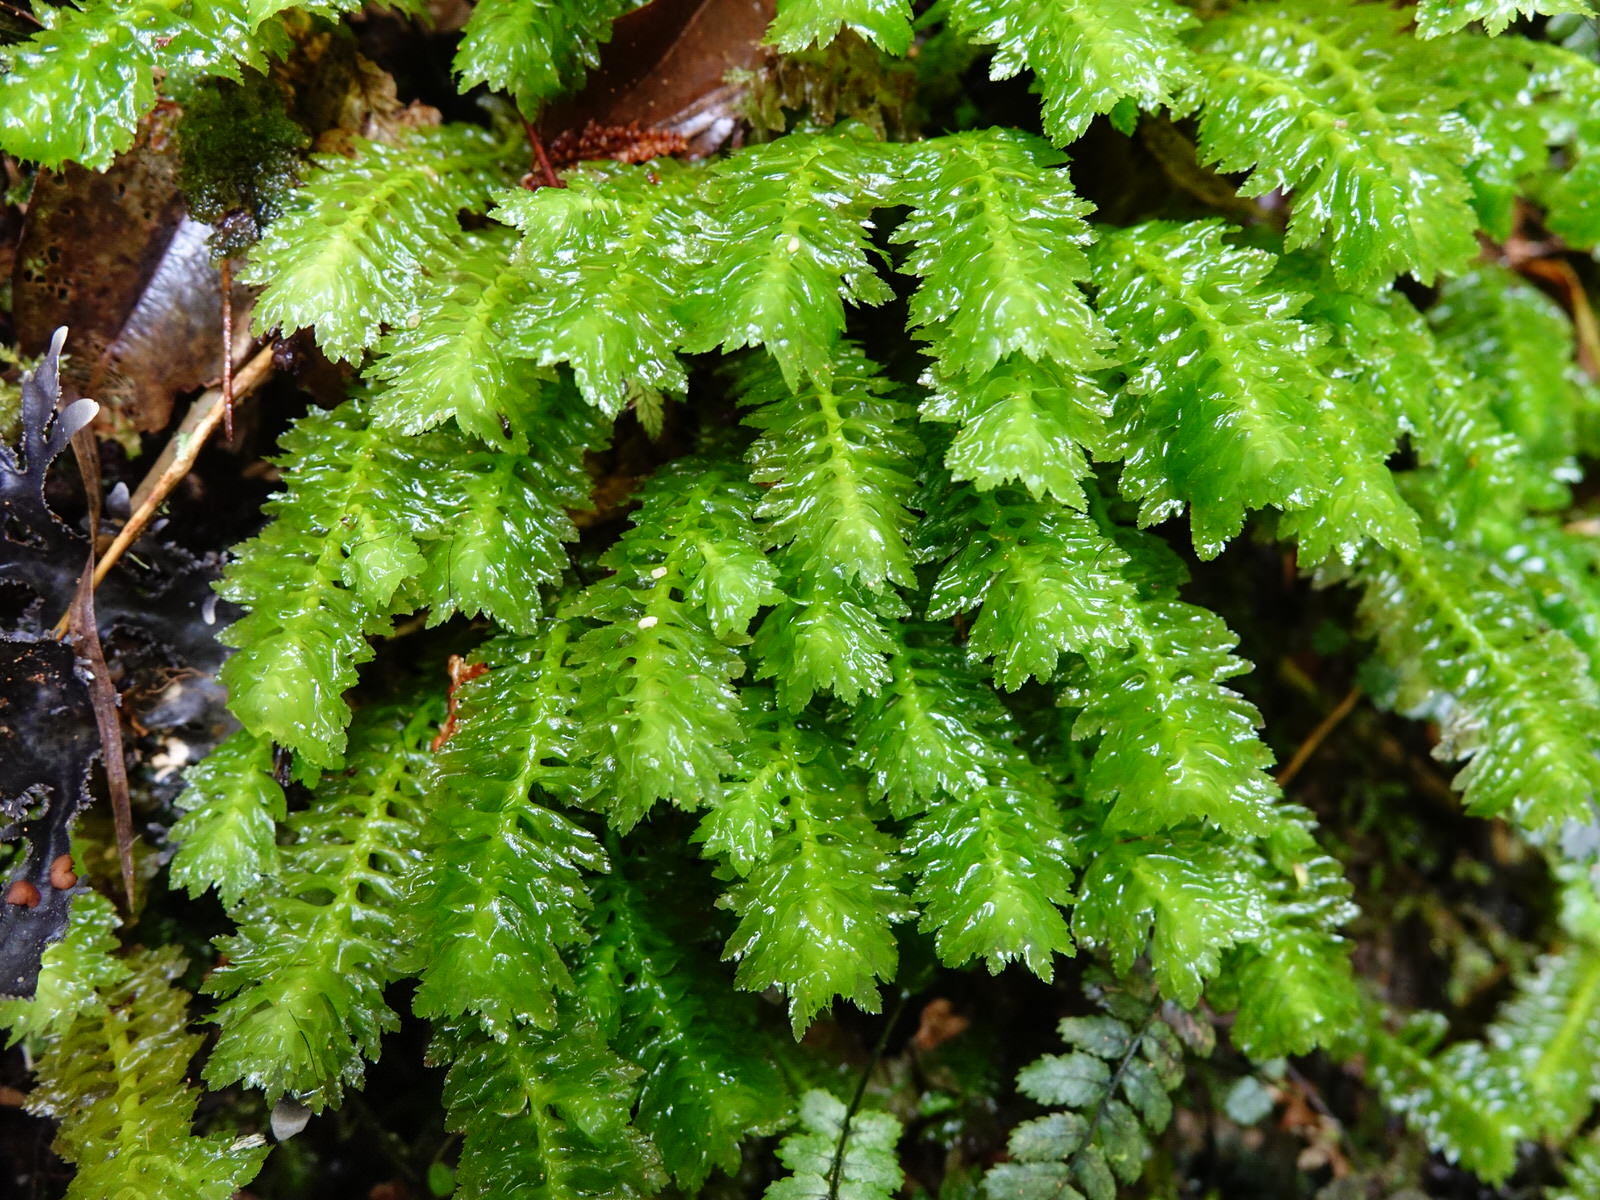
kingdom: Plantae
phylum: Marchantiophyta
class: Jungermanniopsida
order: Jungermanniales
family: Schistochilaceae
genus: Schistochila
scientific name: Schistochila appendiculata
